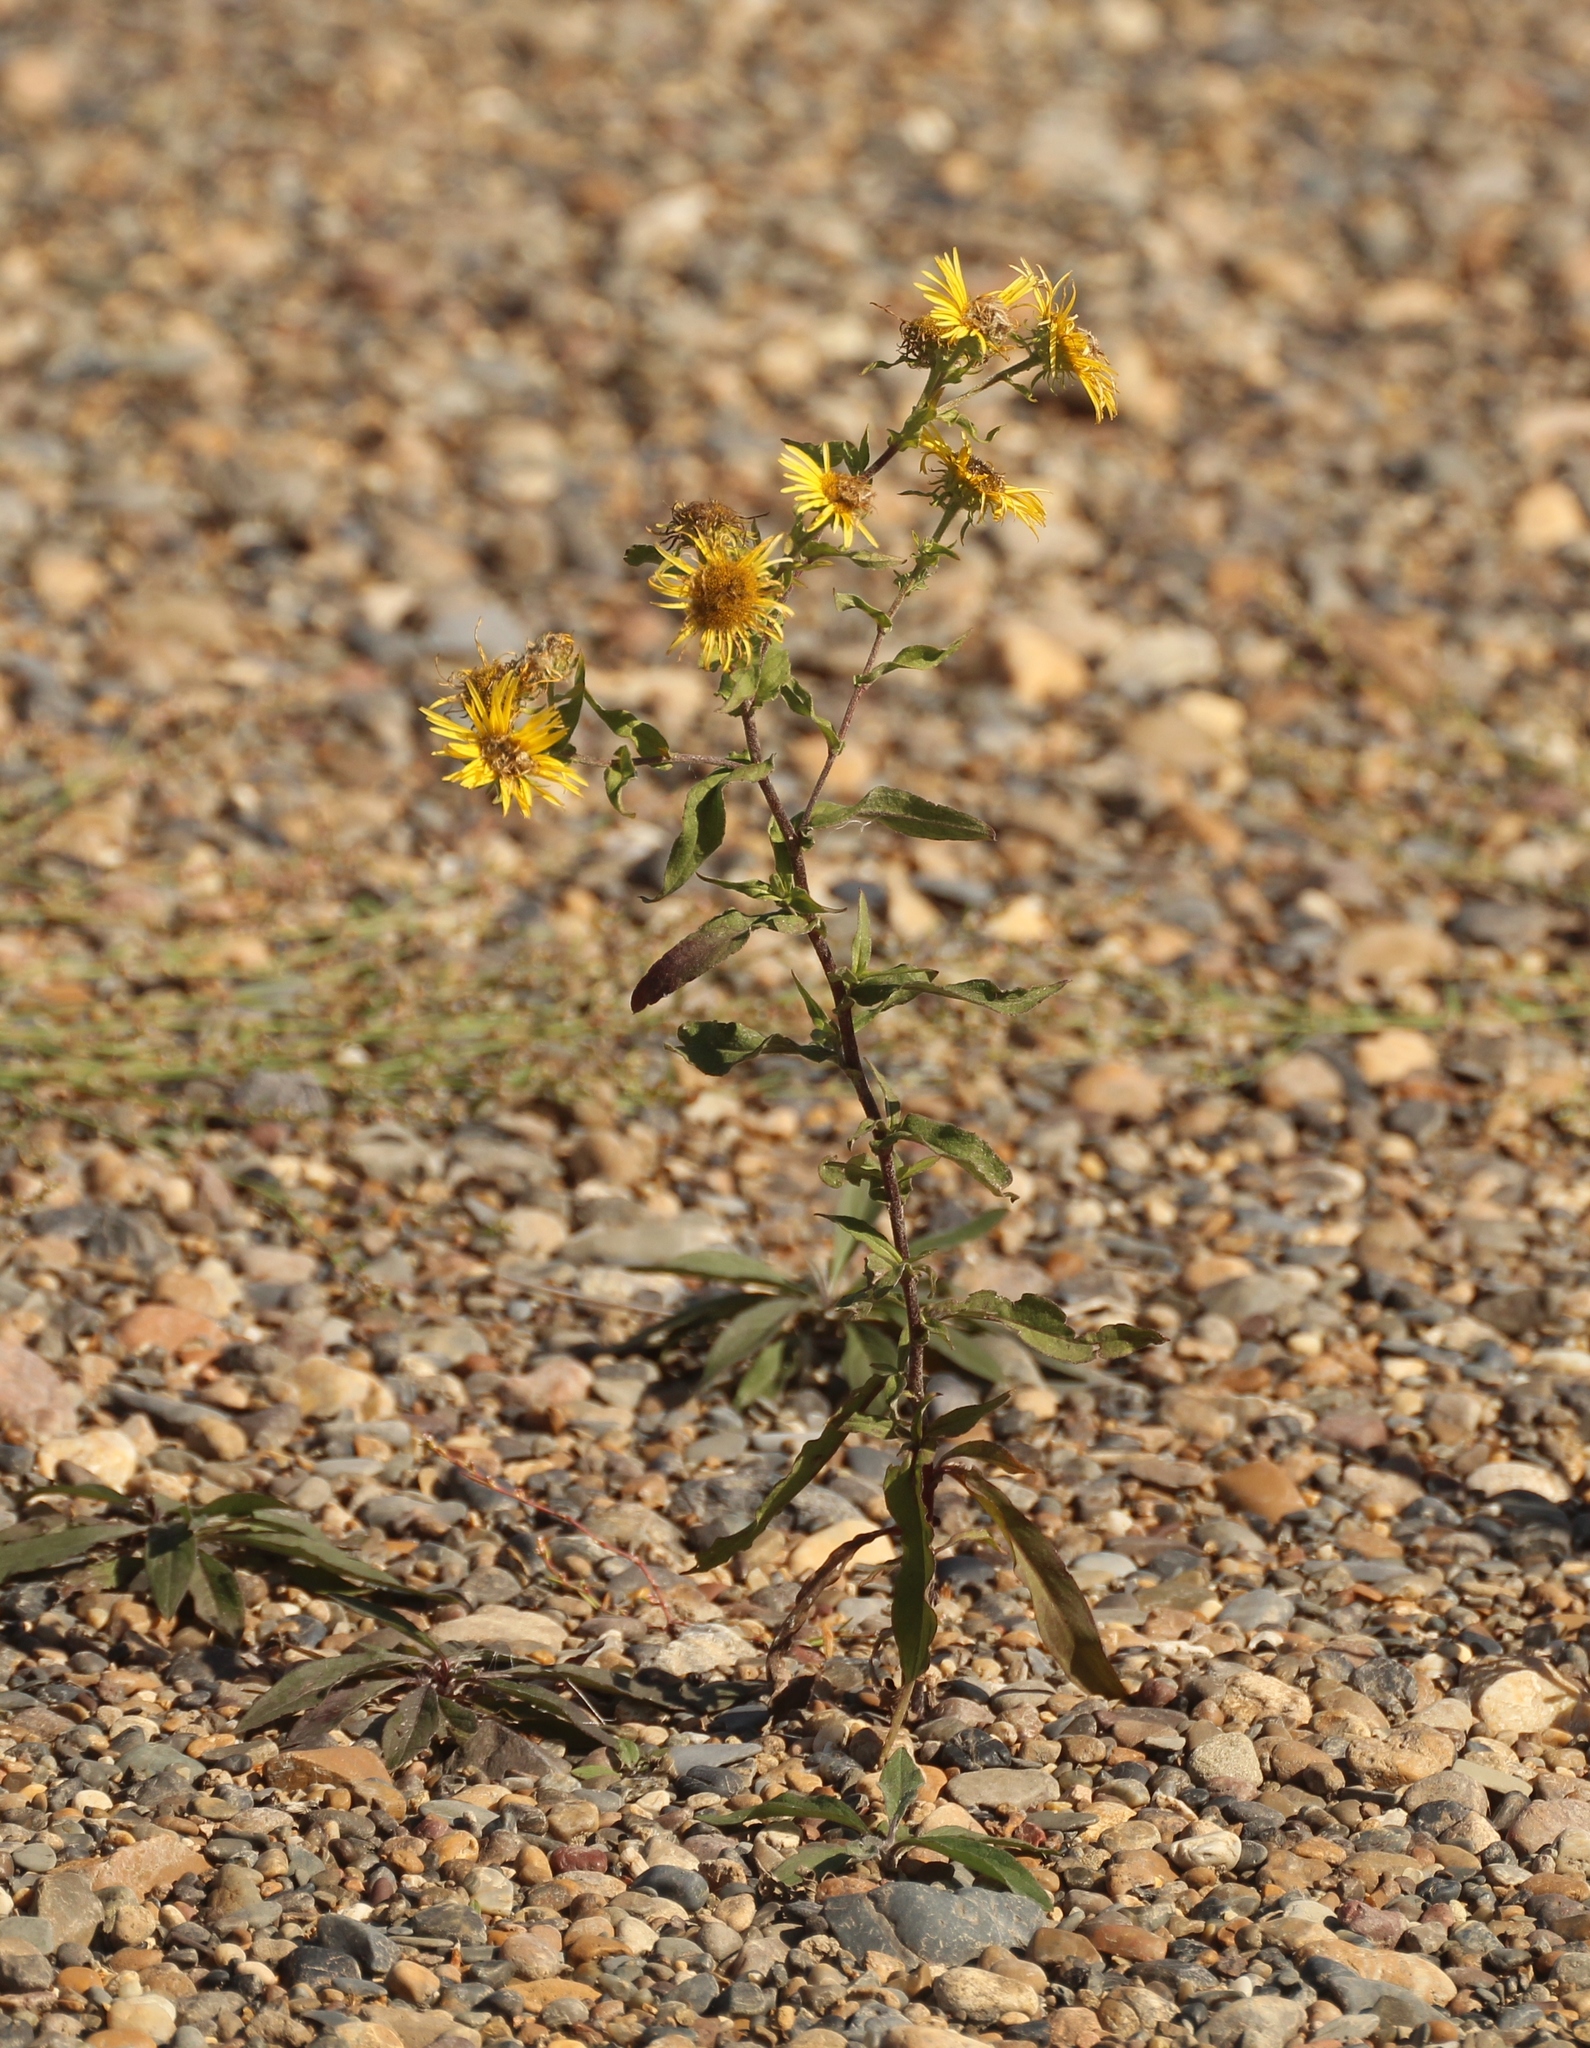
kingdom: Plantae
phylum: Tracheophyta
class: Magnoliopsida
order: Asterales
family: Asteraceae
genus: Pentanema
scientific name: Pentanema britannicum
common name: British elecampane
